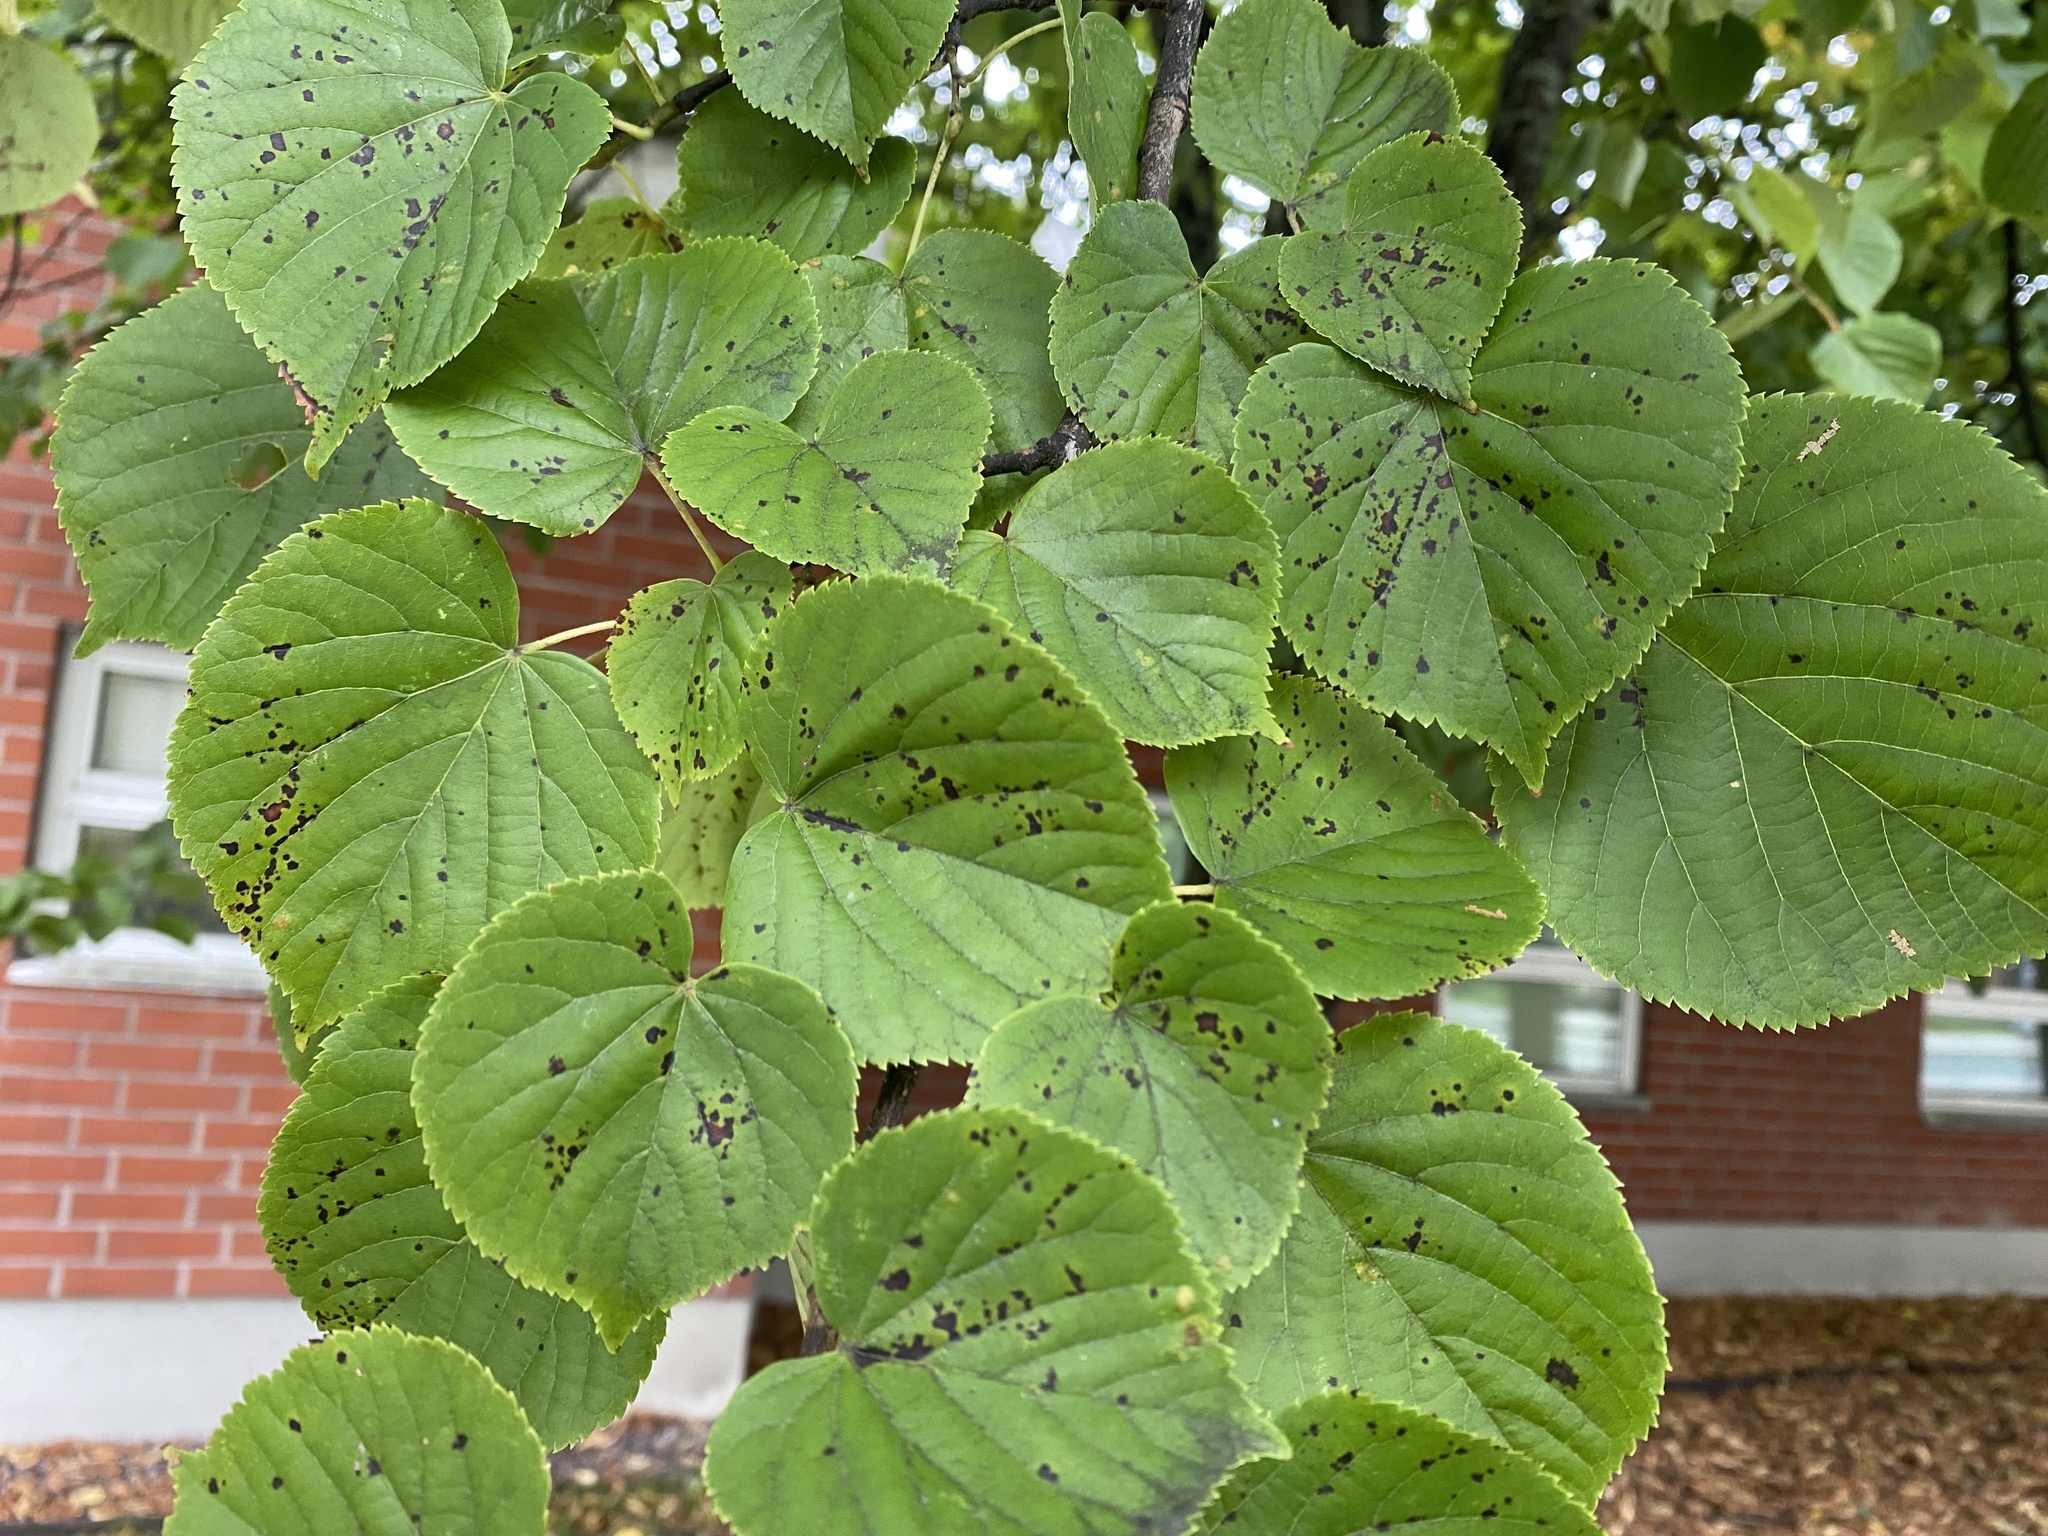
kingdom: Fungi
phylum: Ascomycota
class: Dothideomycetes
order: Mycosphaerellales
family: Mycosphaerellaceae
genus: Paracercosporidium
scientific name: Paracercosporidium microsorum
